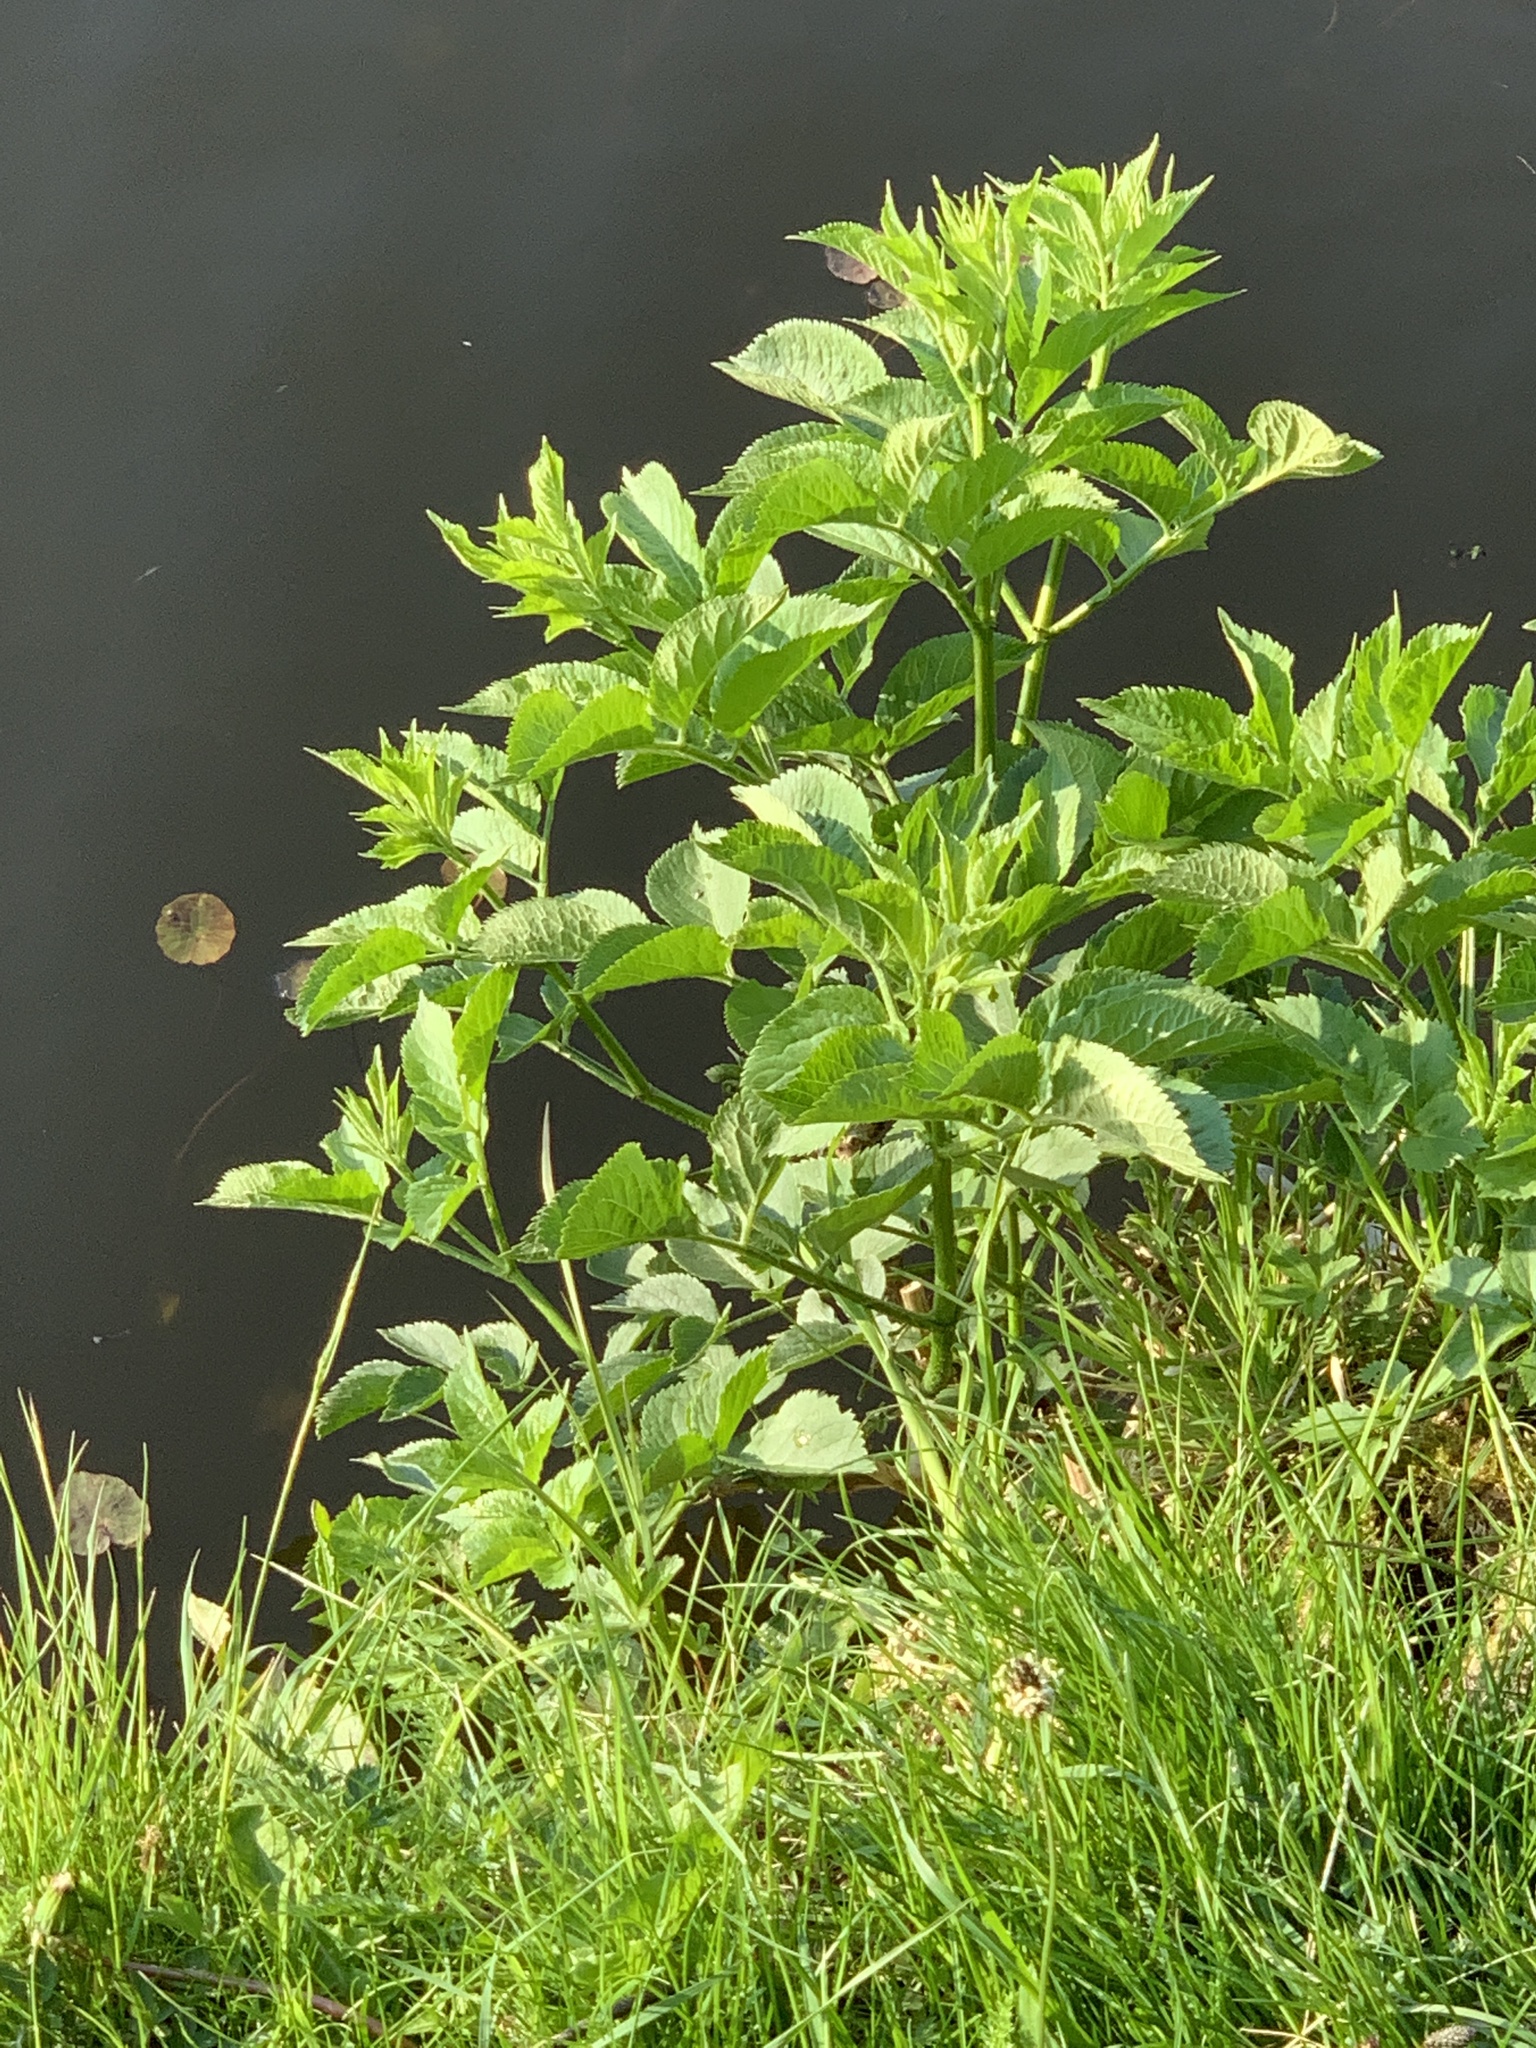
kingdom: Plantae
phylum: Tracheophyta
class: Magnoliopsida
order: Dipsacales
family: Viburnaceae
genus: Sambucus
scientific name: Sambucus nigra
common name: Elder
